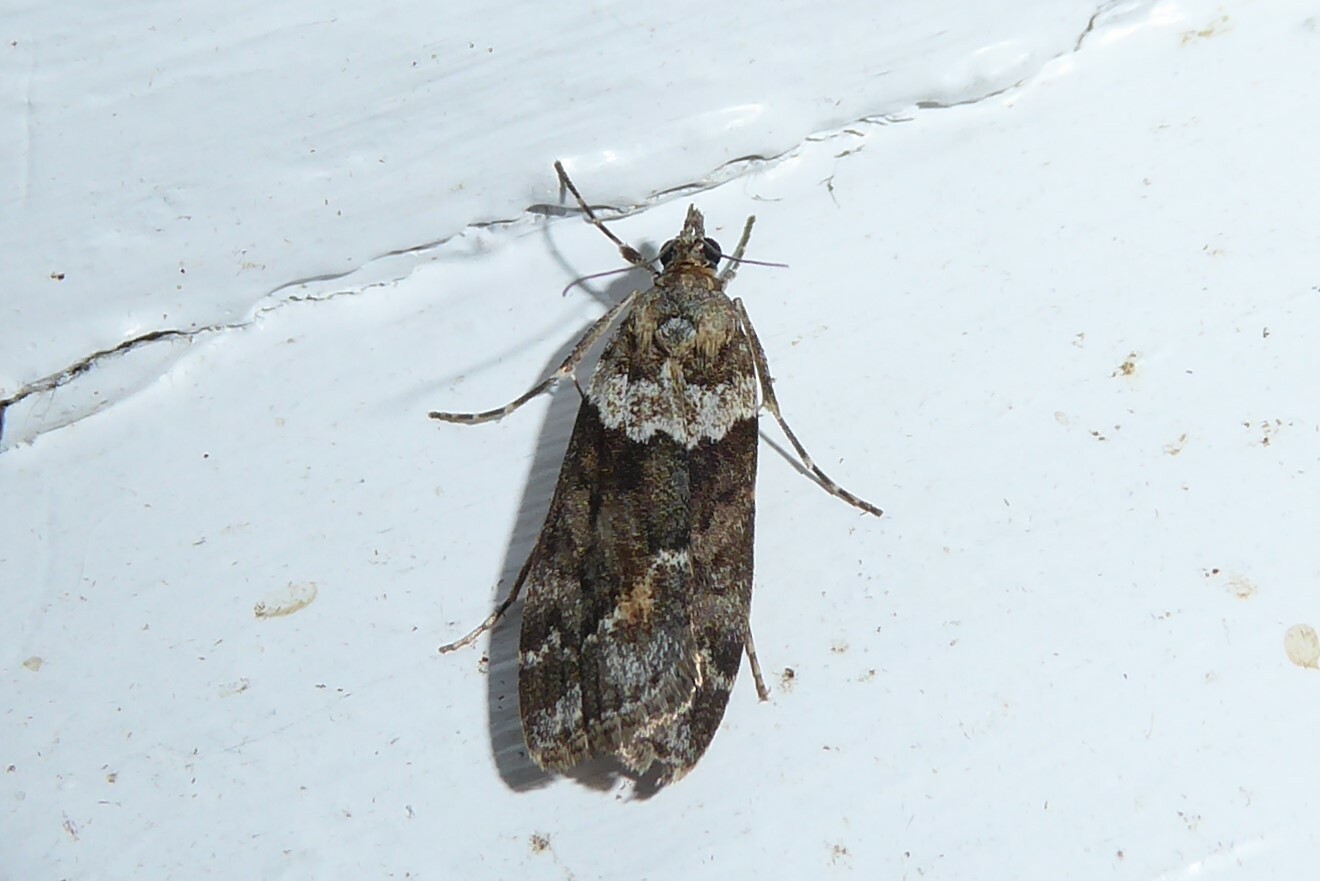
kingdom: Animalia
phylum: Arthropoda
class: Insecta
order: Lepidoptera
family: Crambidae
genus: Eudonia
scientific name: Eudonia submarginalis
